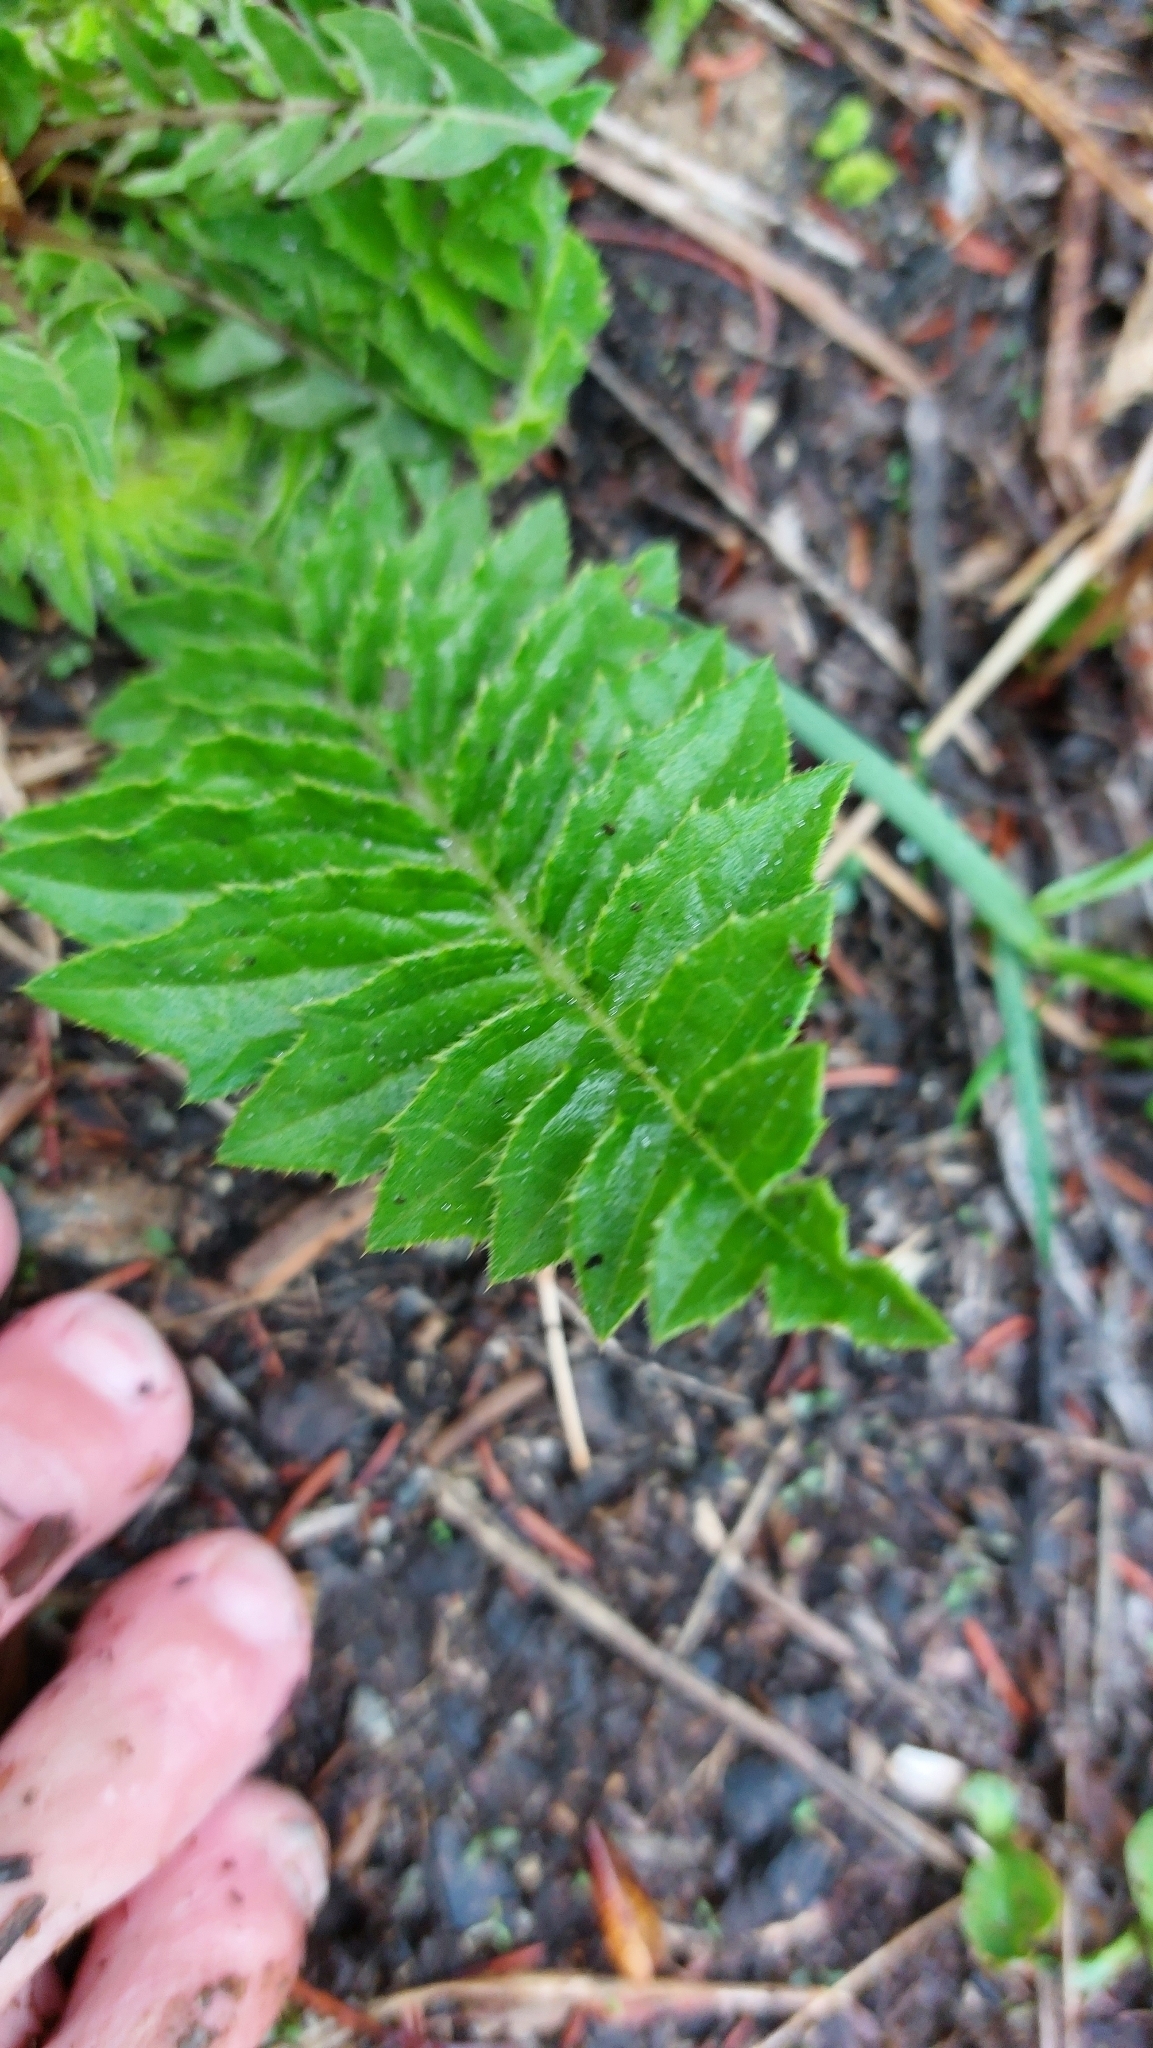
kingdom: Plantae
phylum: Tracheophyta
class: Magnoliopsida
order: Asterales
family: Asteraceae
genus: Cirsium
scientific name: Cirsium erisithales
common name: Yellow thistle
